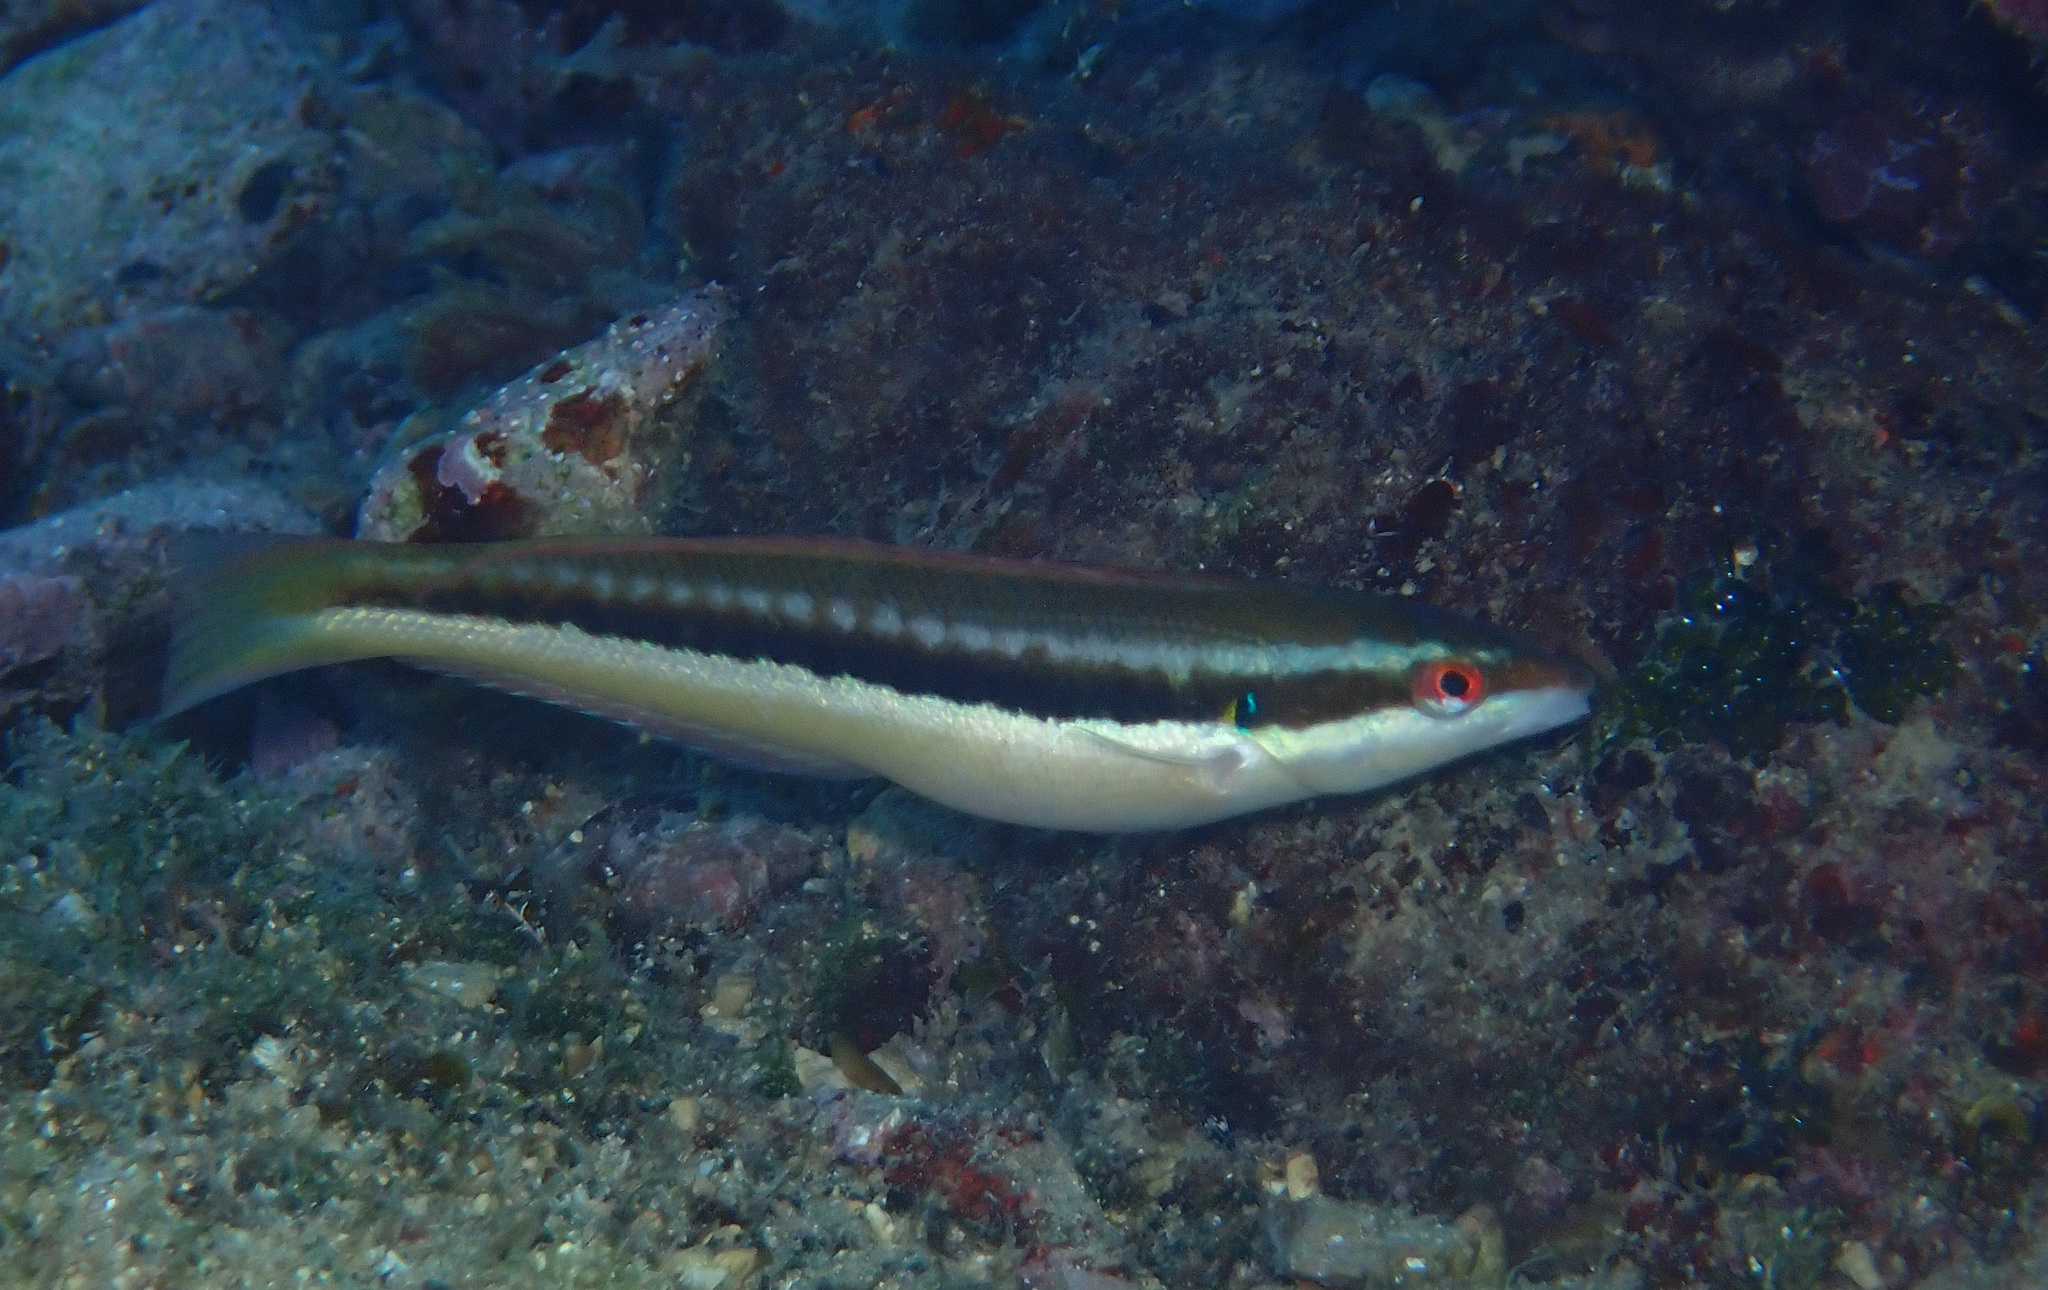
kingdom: Animalia
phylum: Chordata
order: Perciformes
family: Labridae
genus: Coris
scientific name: Coris julis
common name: Rainbow wrasse
